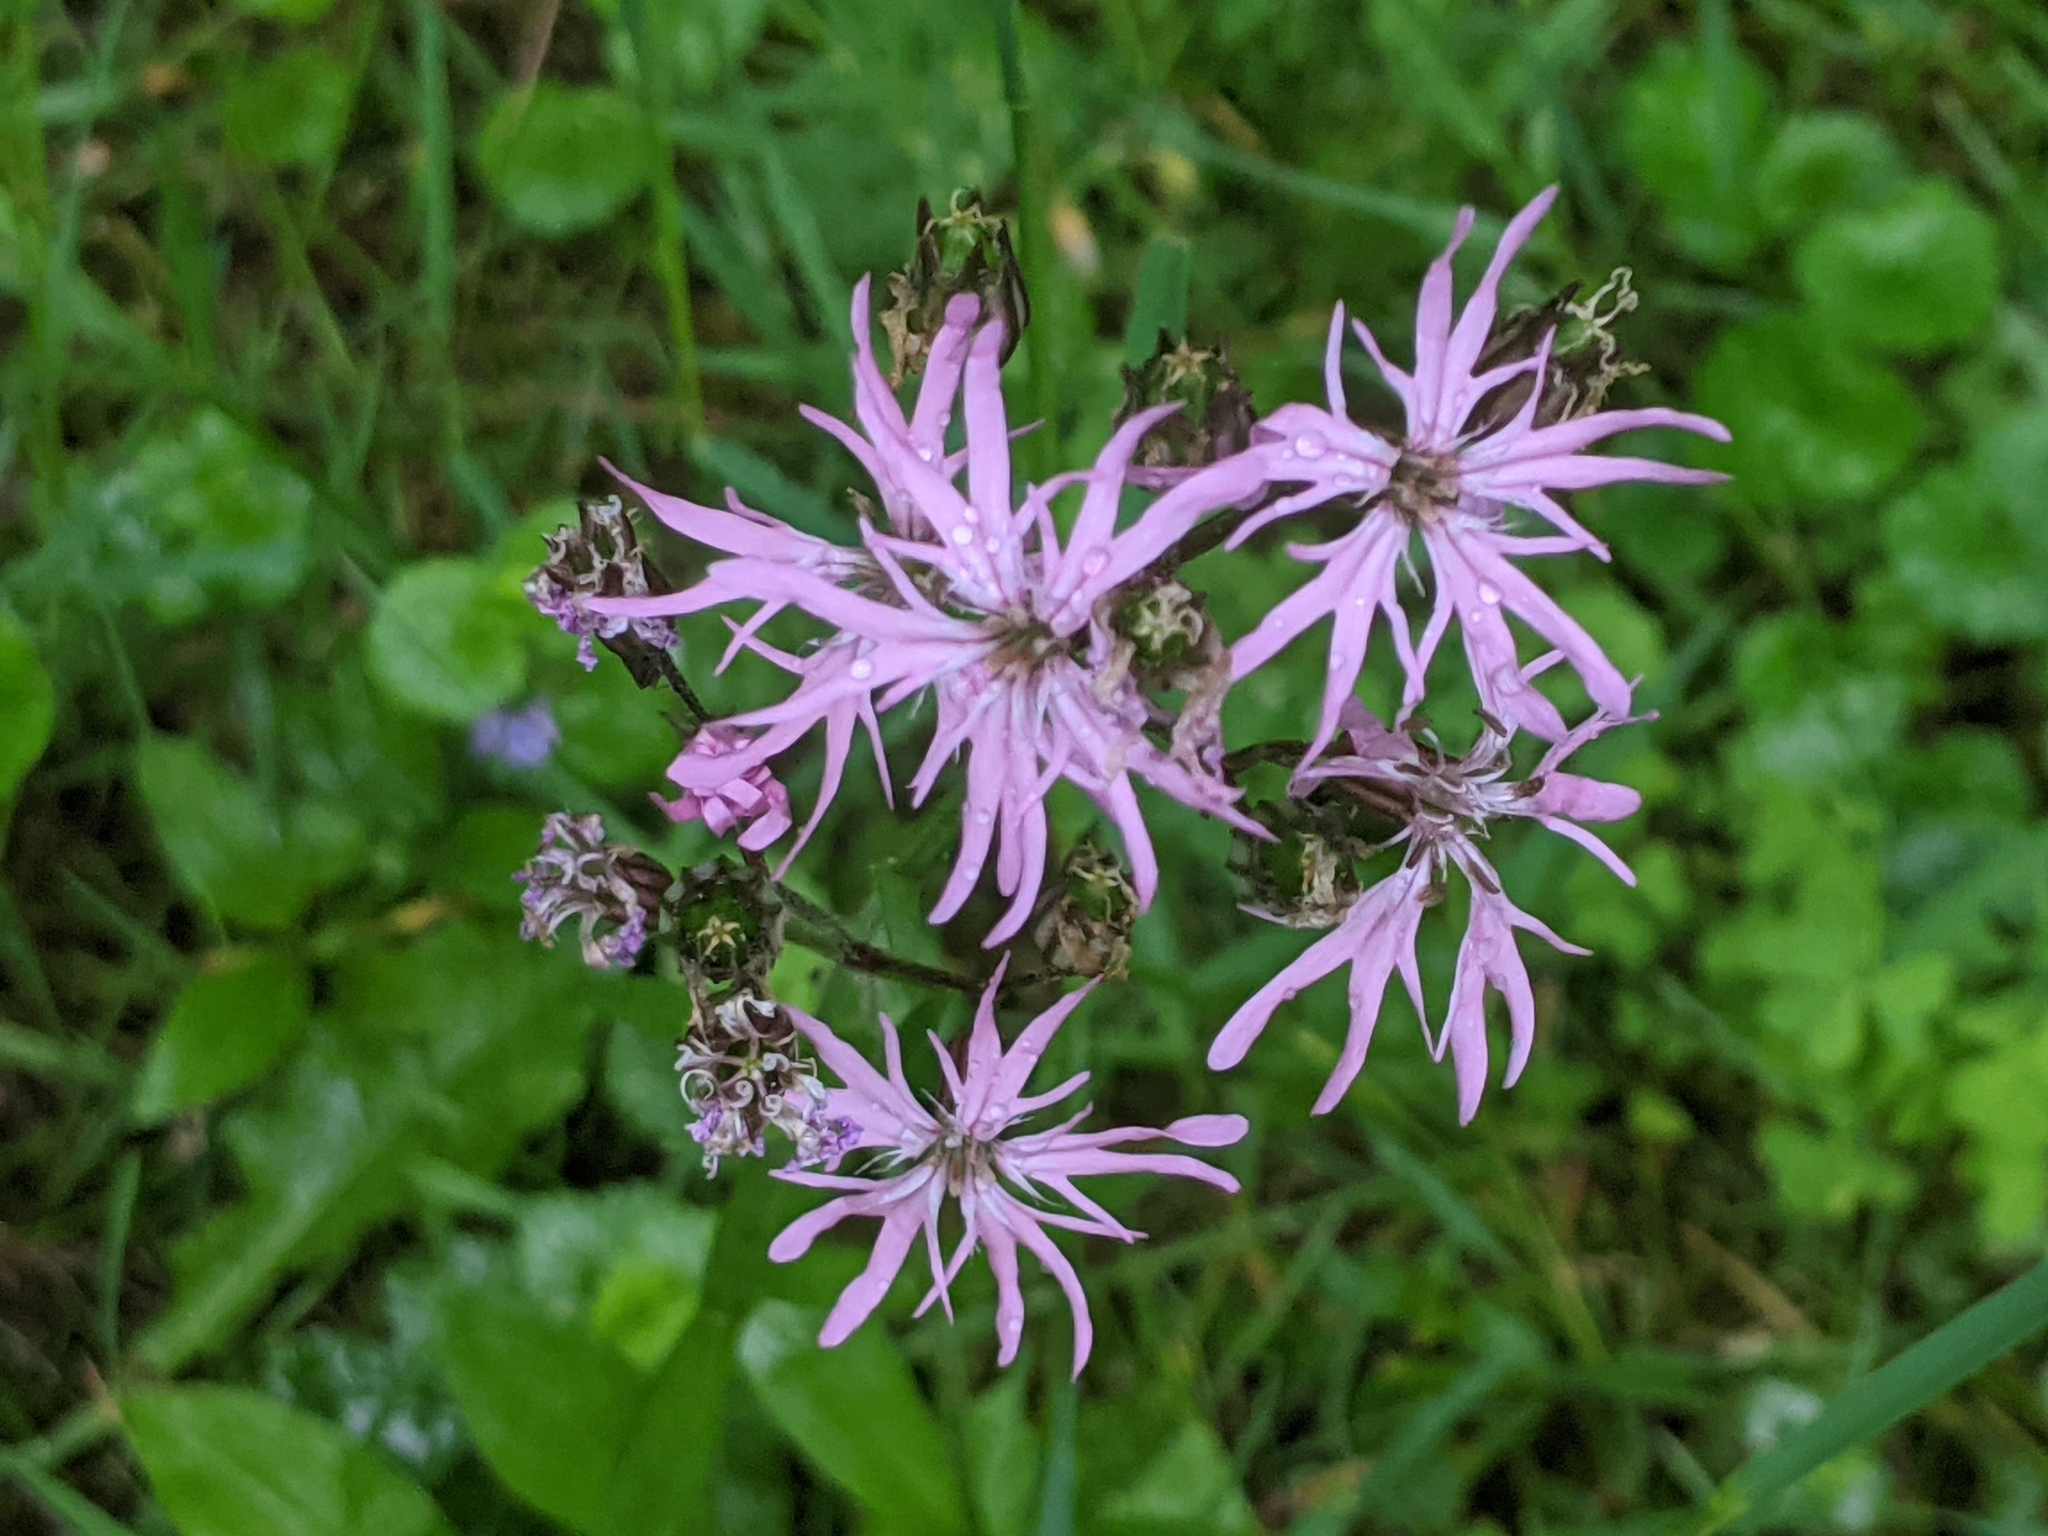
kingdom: Plantae
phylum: Tracheophyta
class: Magnoliopsida
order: Caryophyllales
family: Caryophyllaceae
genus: Silene
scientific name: Silene flos-cuculi
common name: Ragged-robin
